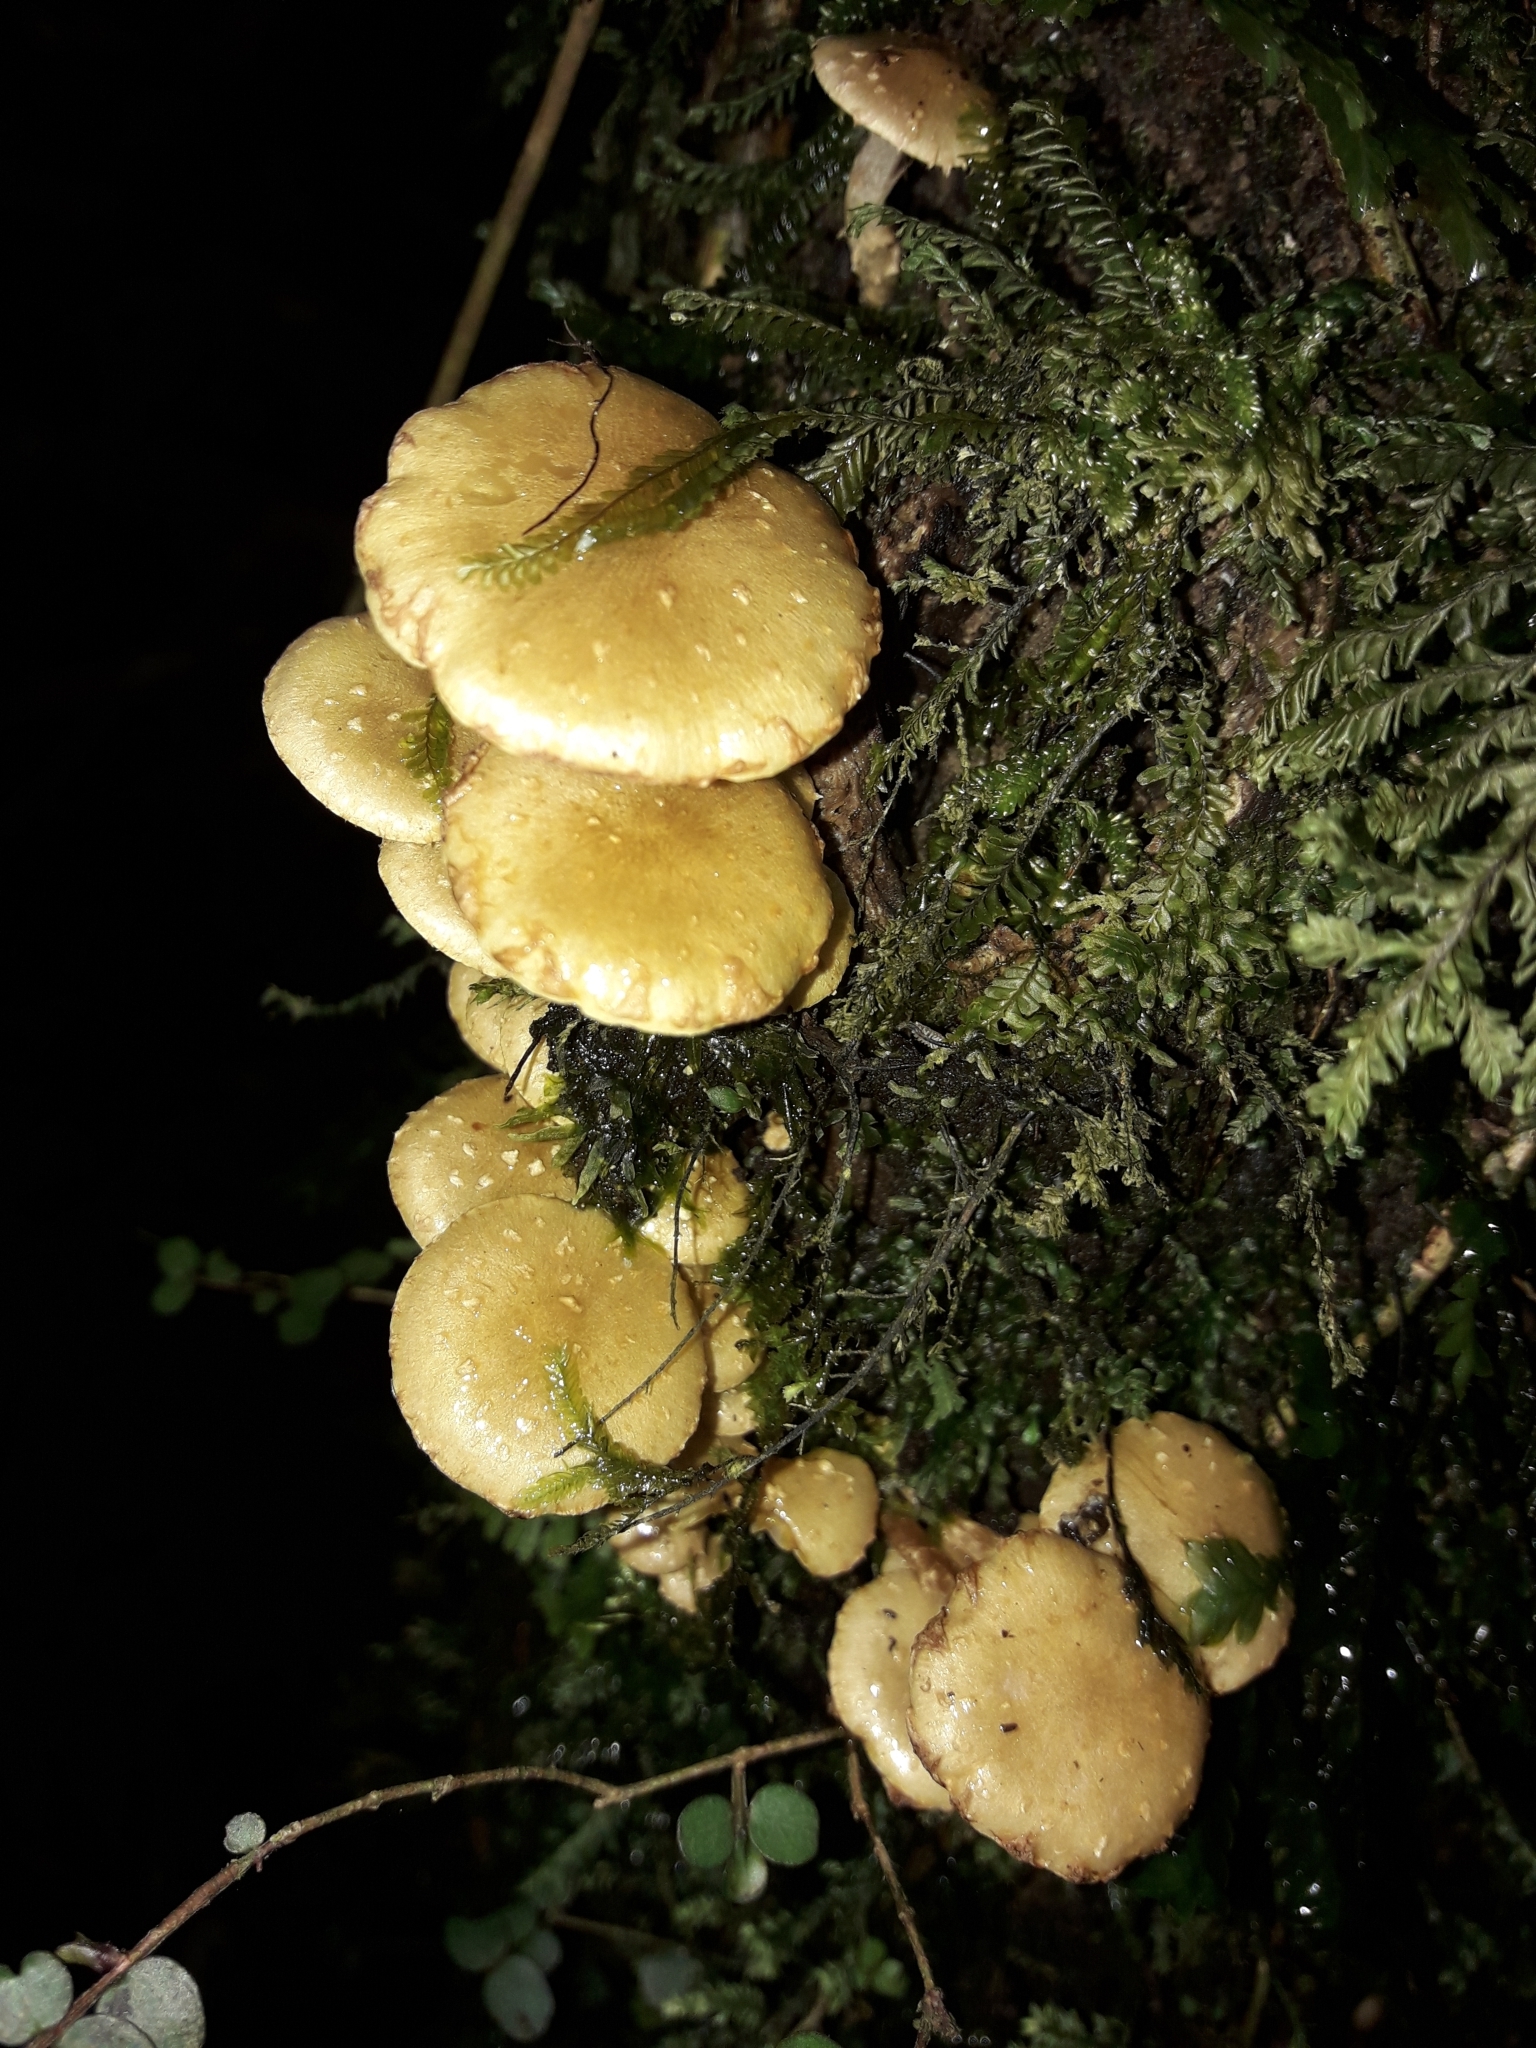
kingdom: Fungi
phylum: Basidiomycota
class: Agaricomycetes
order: Agaricales
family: Strophariaceae
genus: Pholiota
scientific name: Pholiota subflammans
